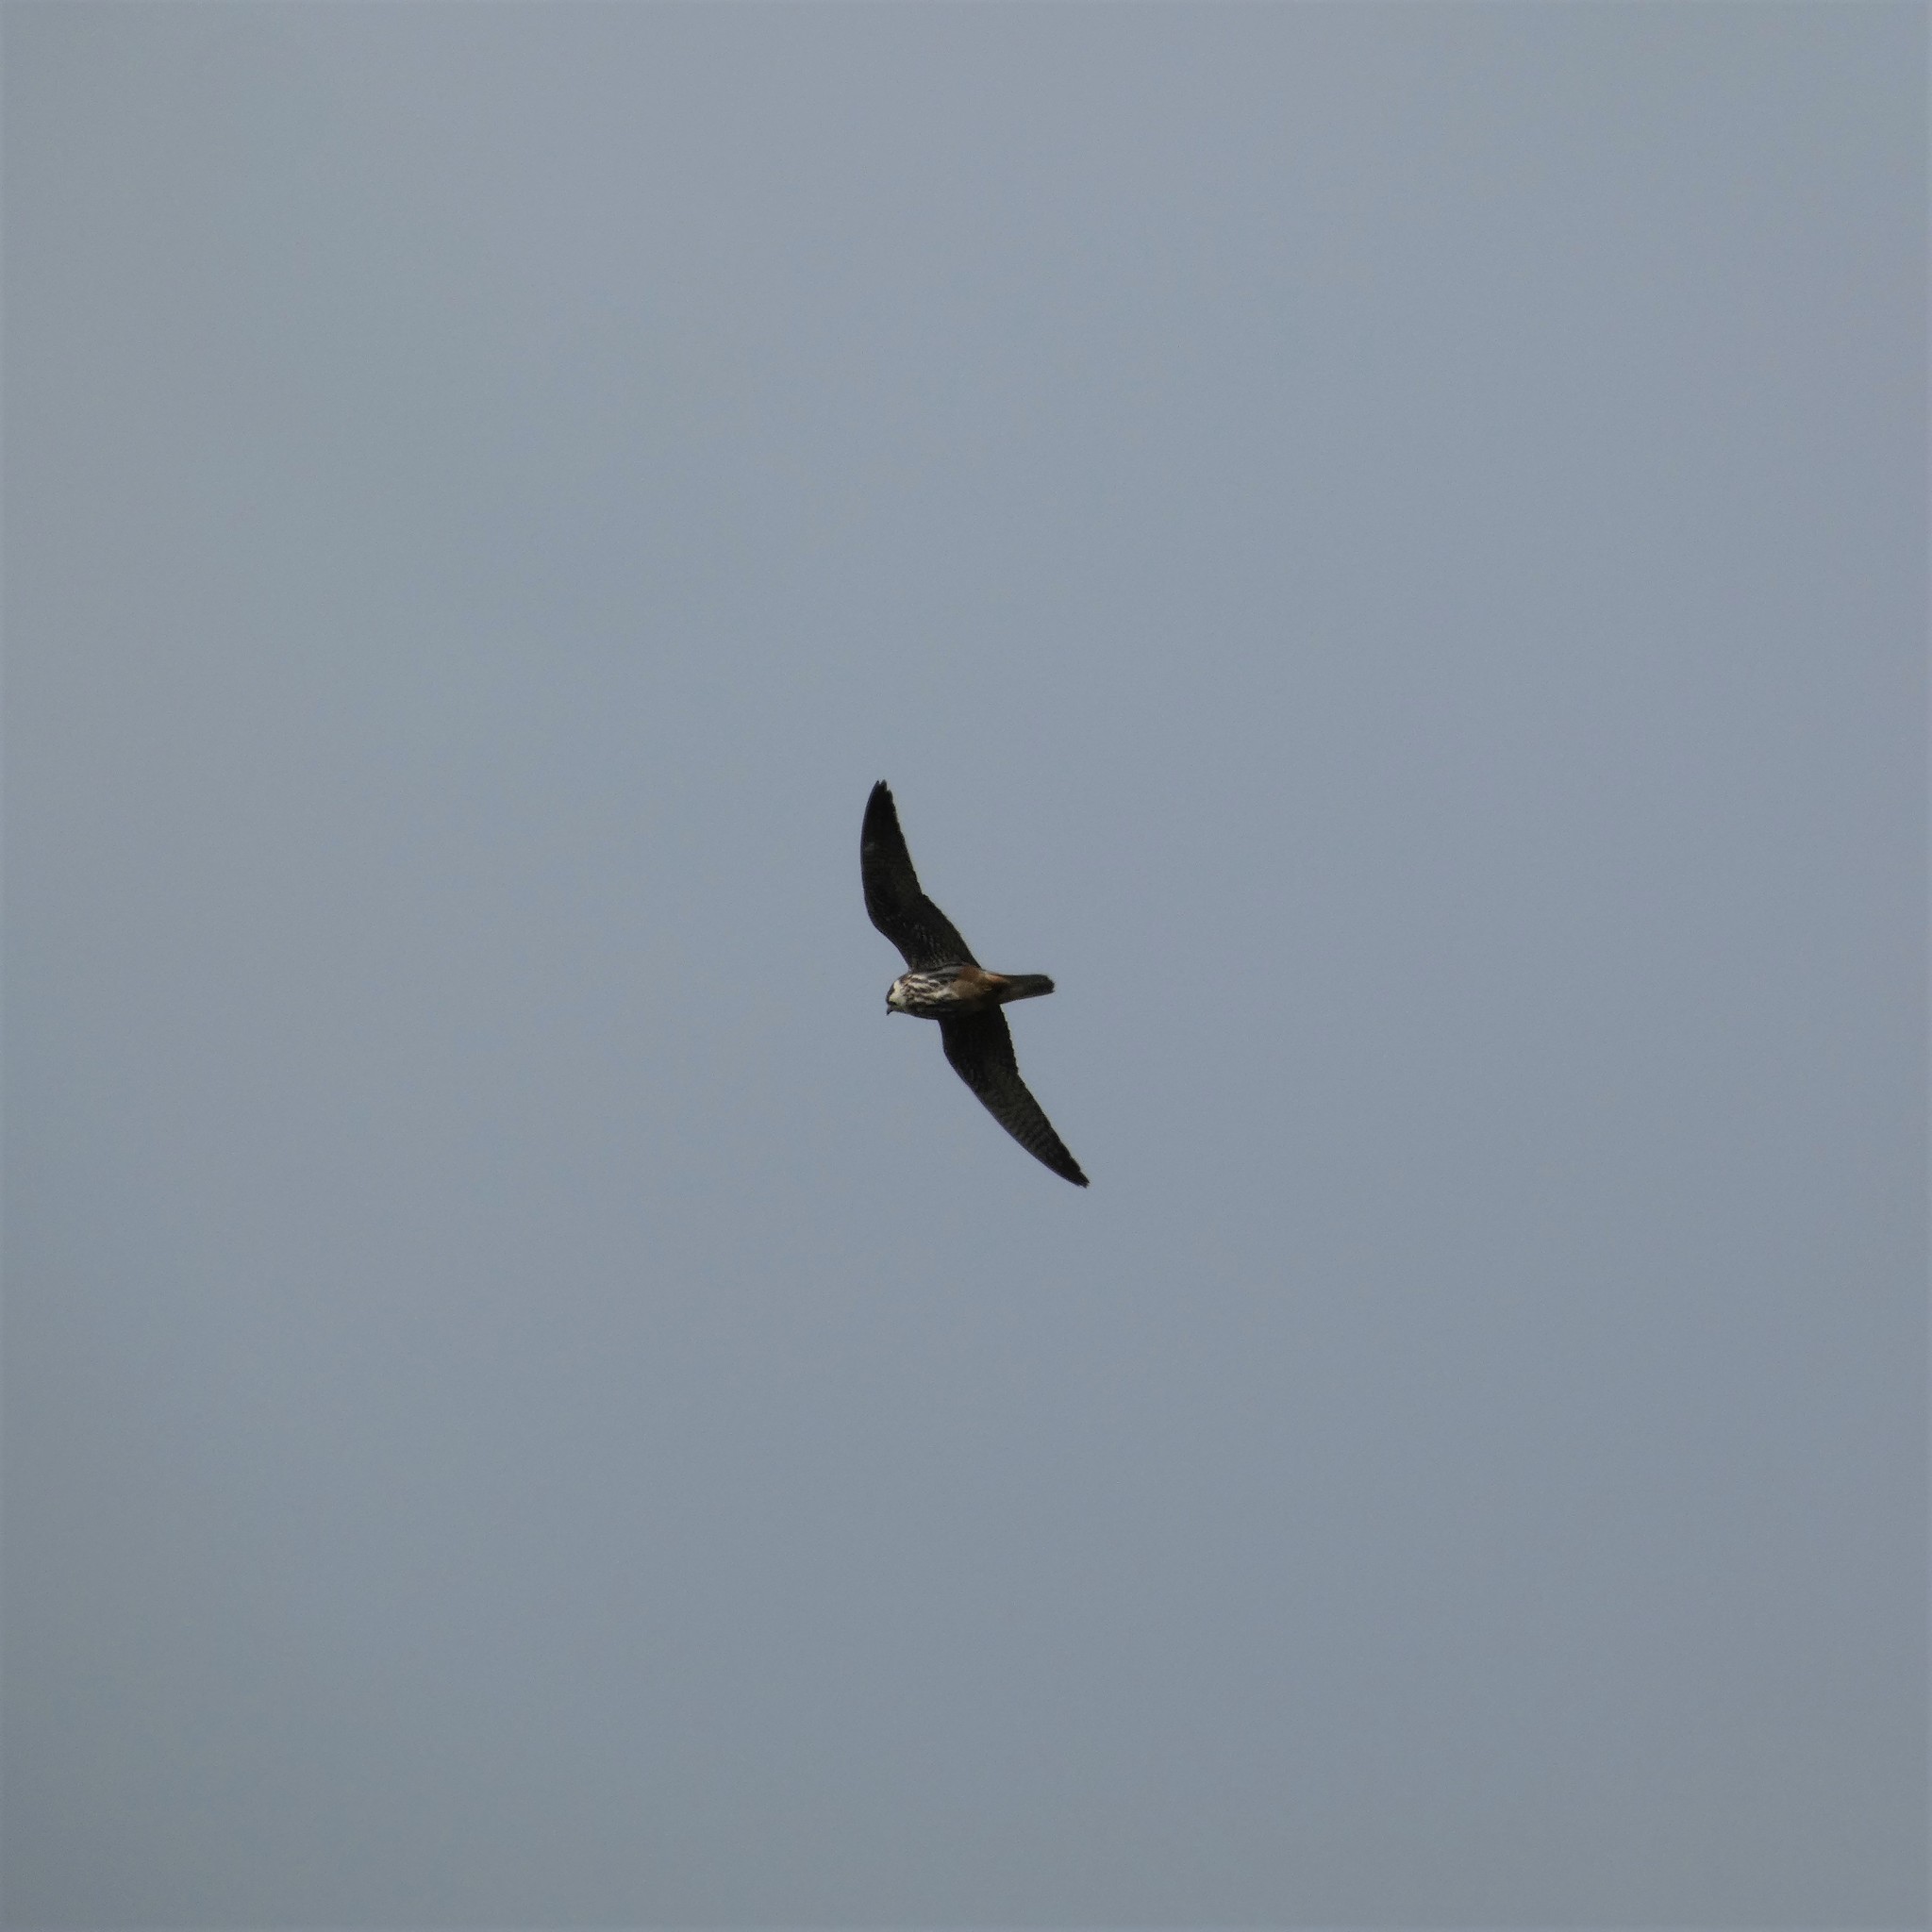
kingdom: Animalia
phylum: Chordata
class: Aves
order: Falconiformes
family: Falconidae
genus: Falco
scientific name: Falco subbuteo
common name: Eurasian hobby
